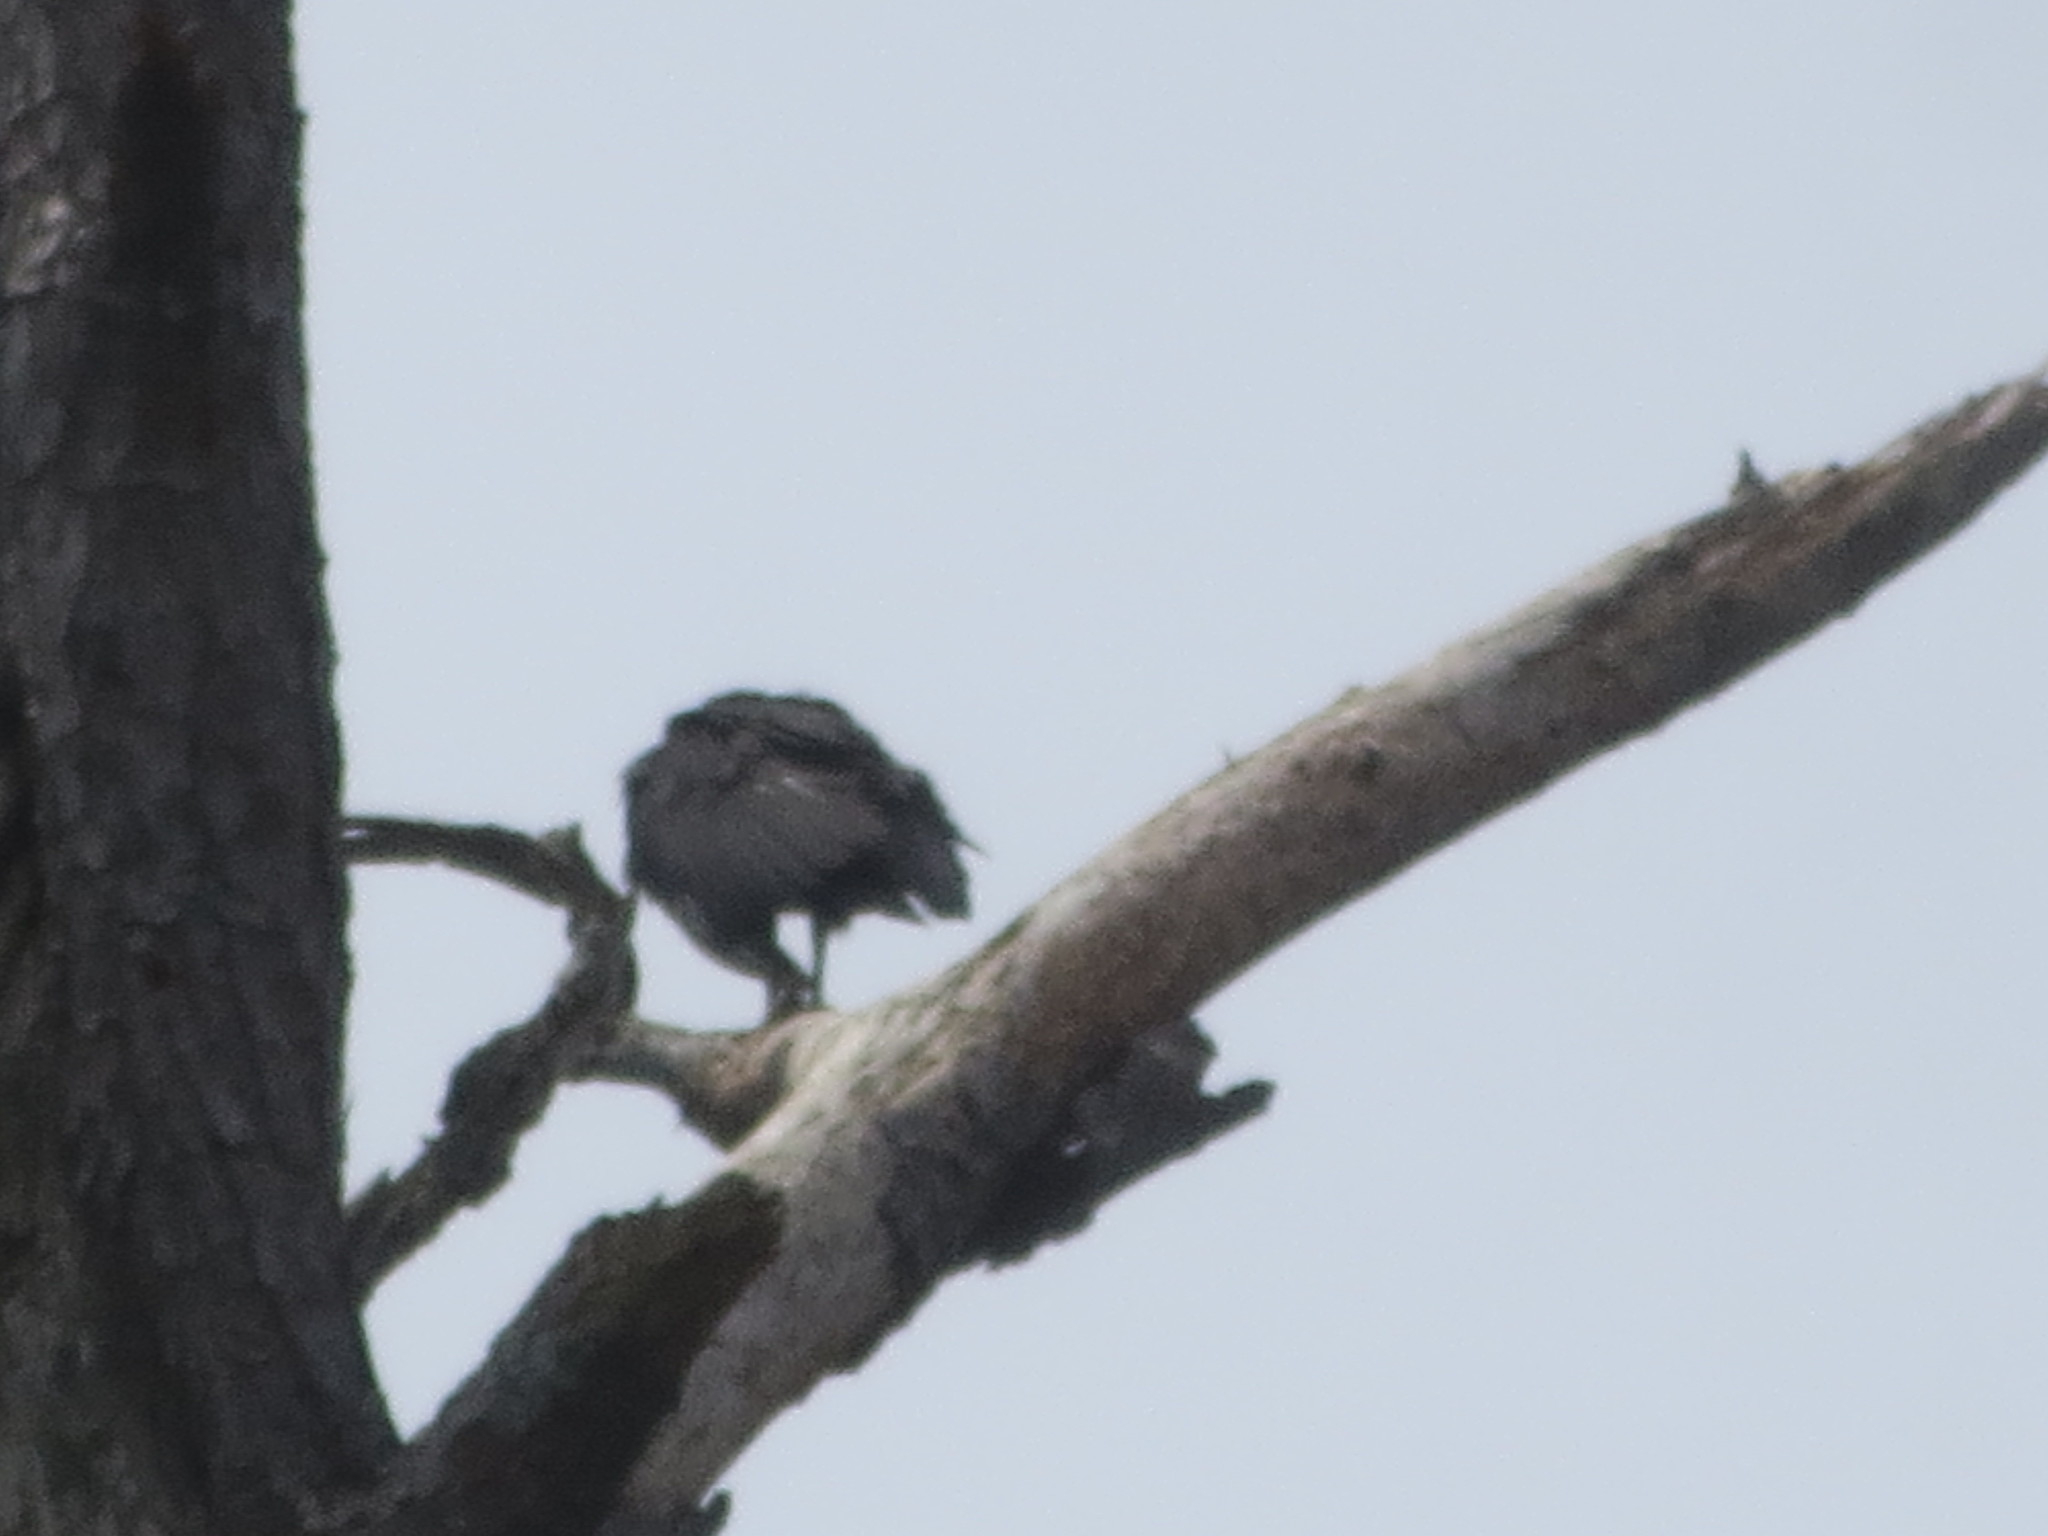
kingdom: Animalia
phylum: Chordata
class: Aves
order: Accipitriformes
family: Cathartidae
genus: Coragyps
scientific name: Coragyps atratus
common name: Black vulture
